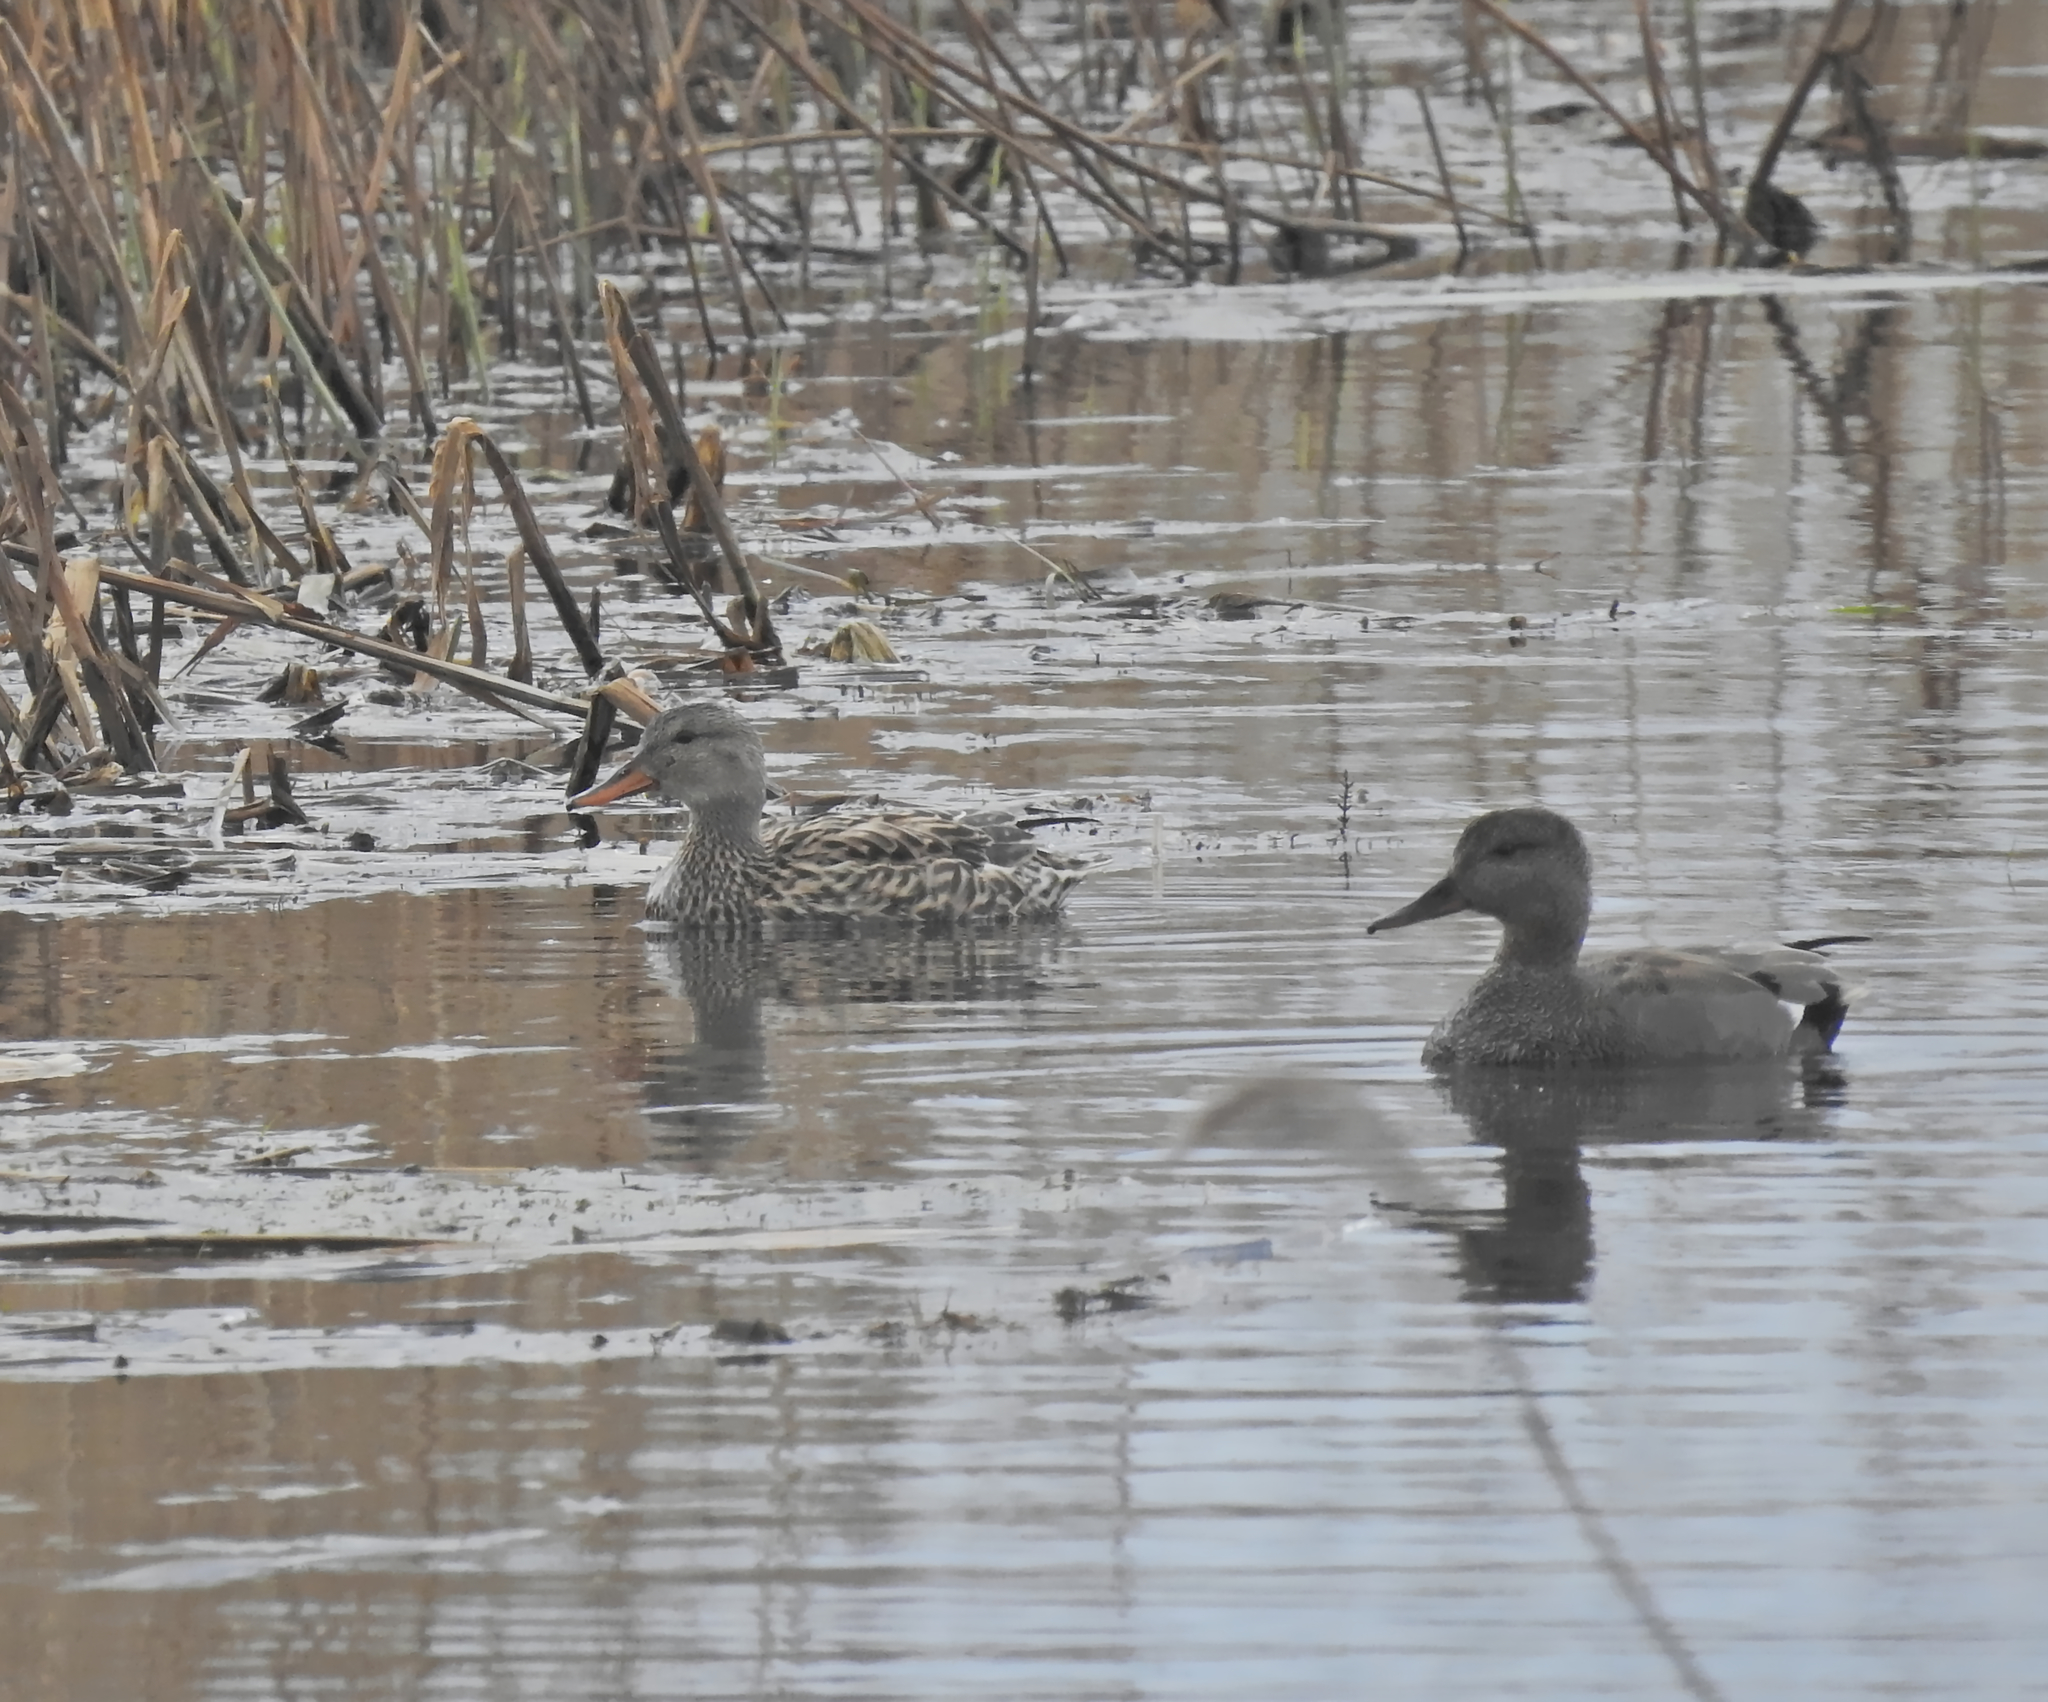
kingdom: Animalia
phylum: Chordata
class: Aves
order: Anseriformes
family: Anatidae
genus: Mareca
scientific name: Mareca strepera
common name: Gadwall
